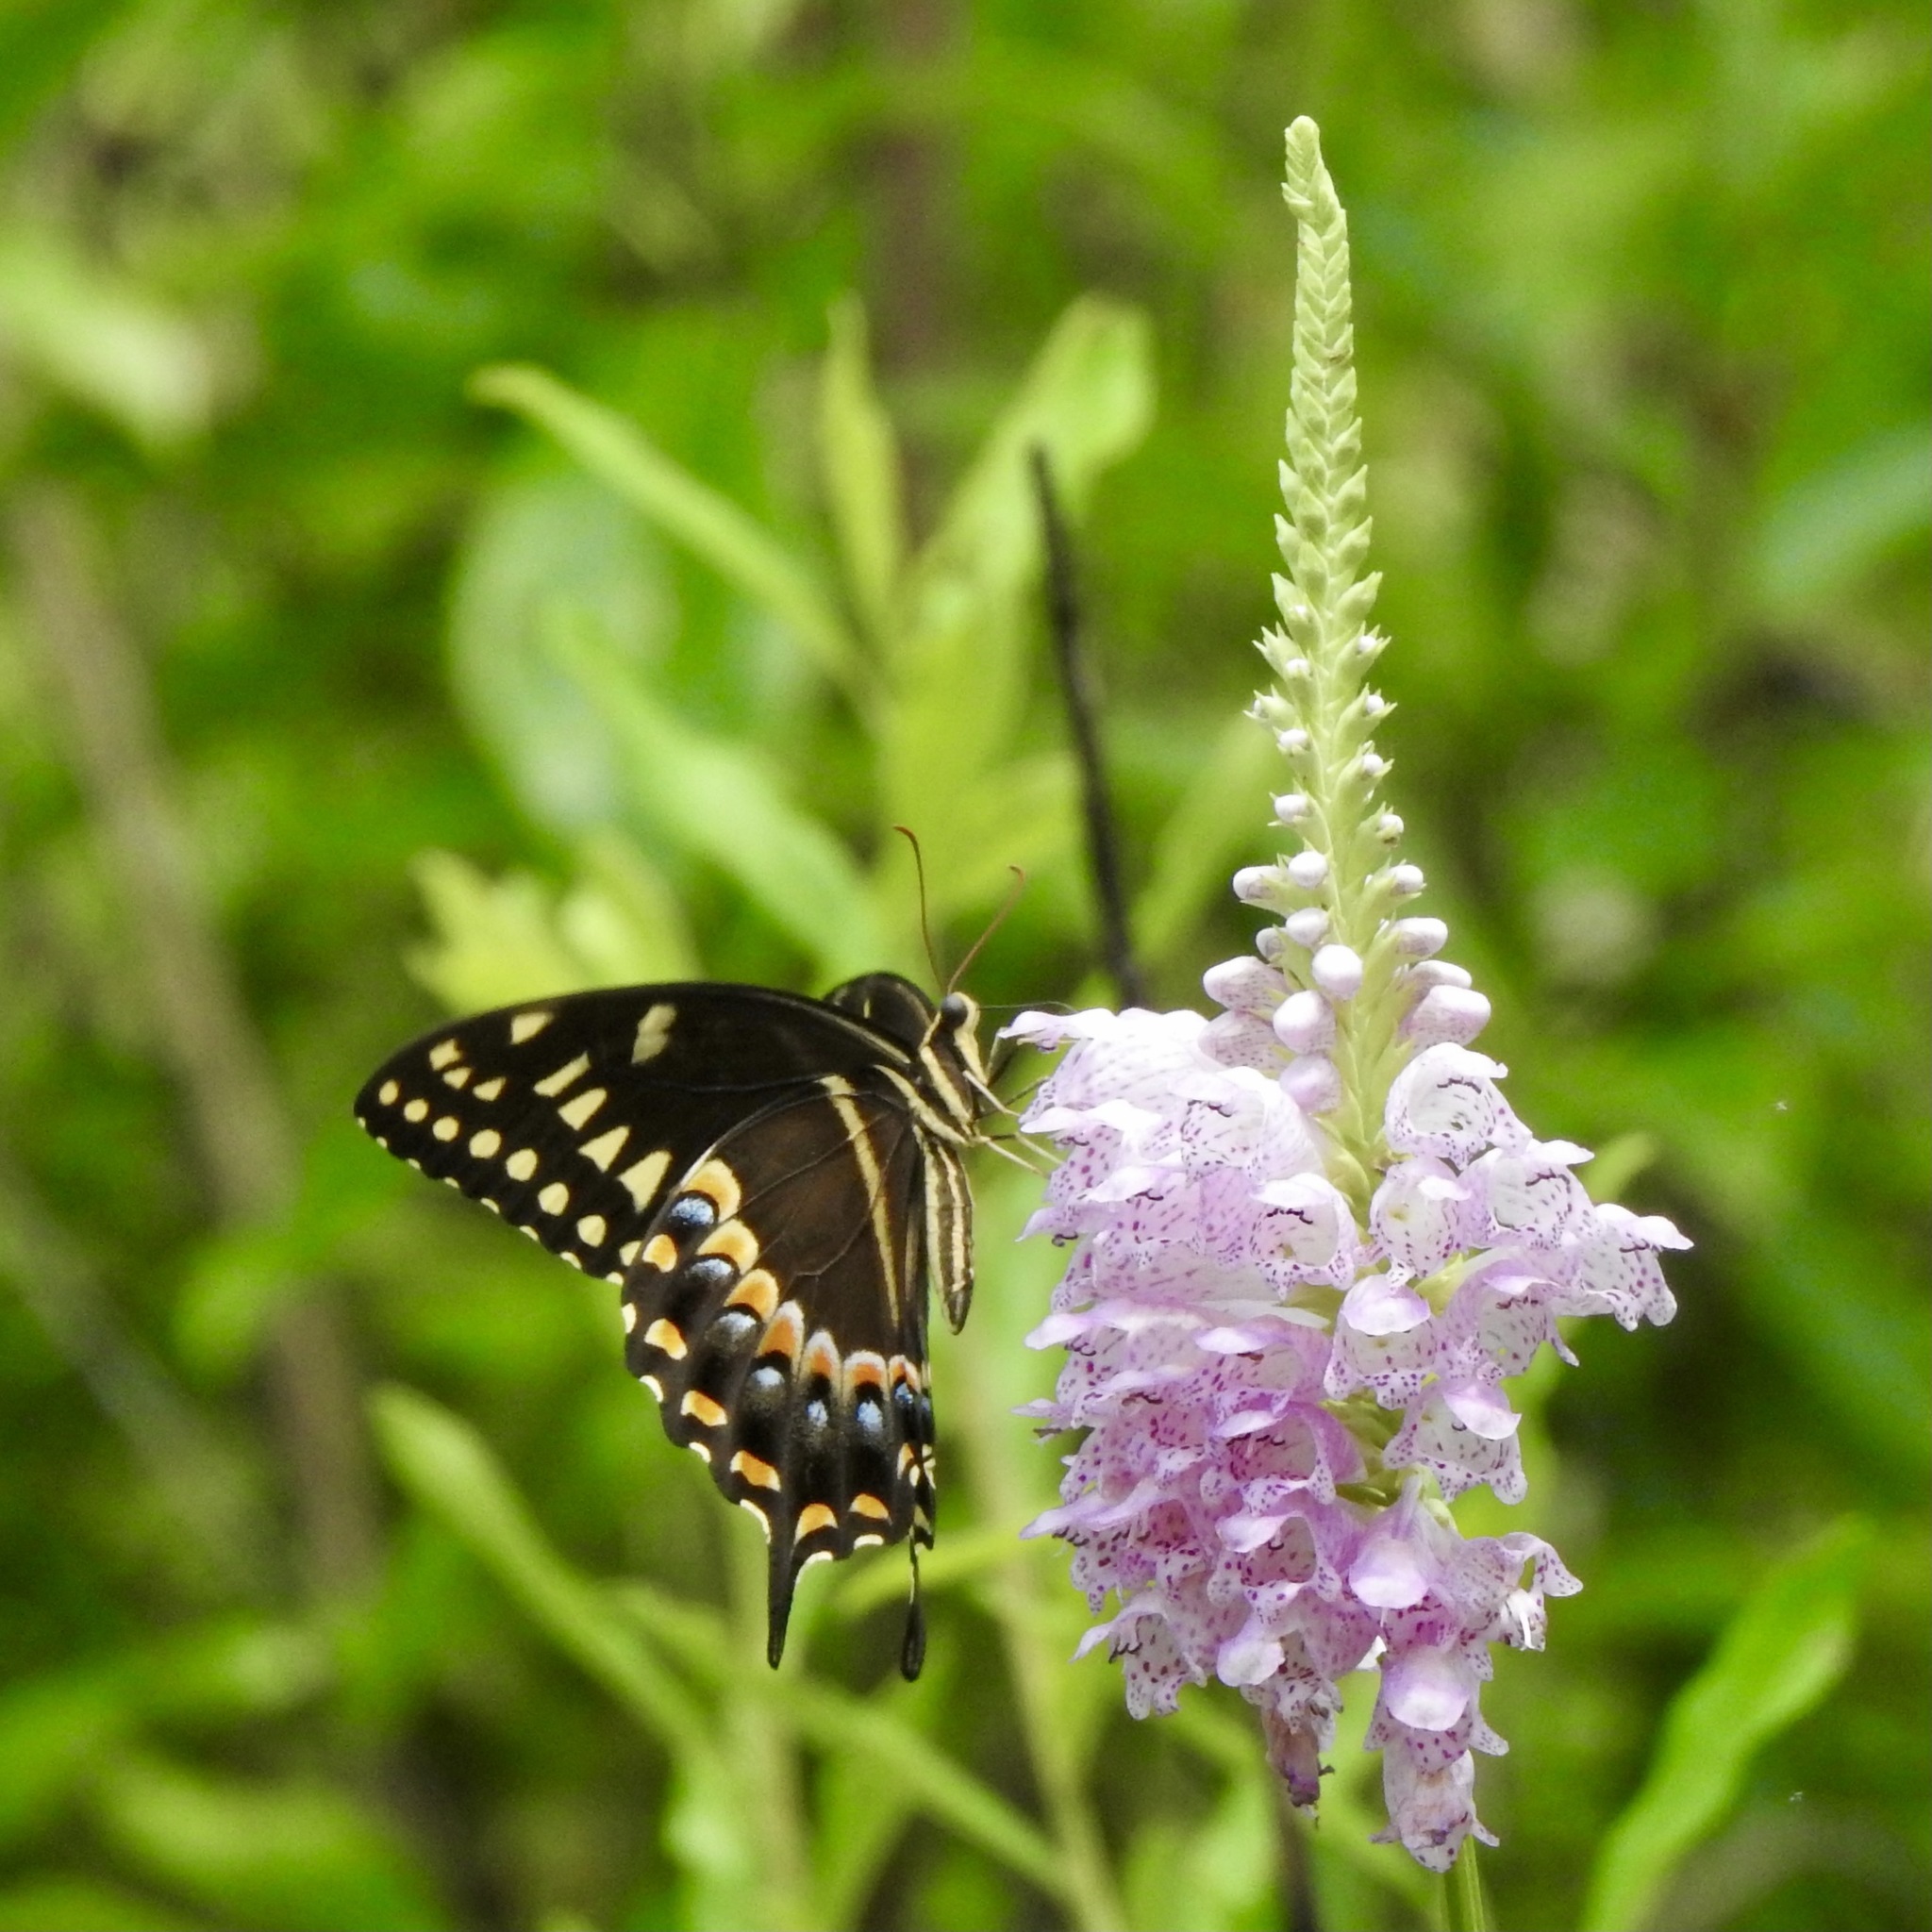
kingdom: Animalia
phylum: Arthropoda
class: Insecta
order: Lepidoptera
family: Papilionidae
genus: Papilio
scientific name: Papilio palamedes
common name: Palamedes swallowtail
